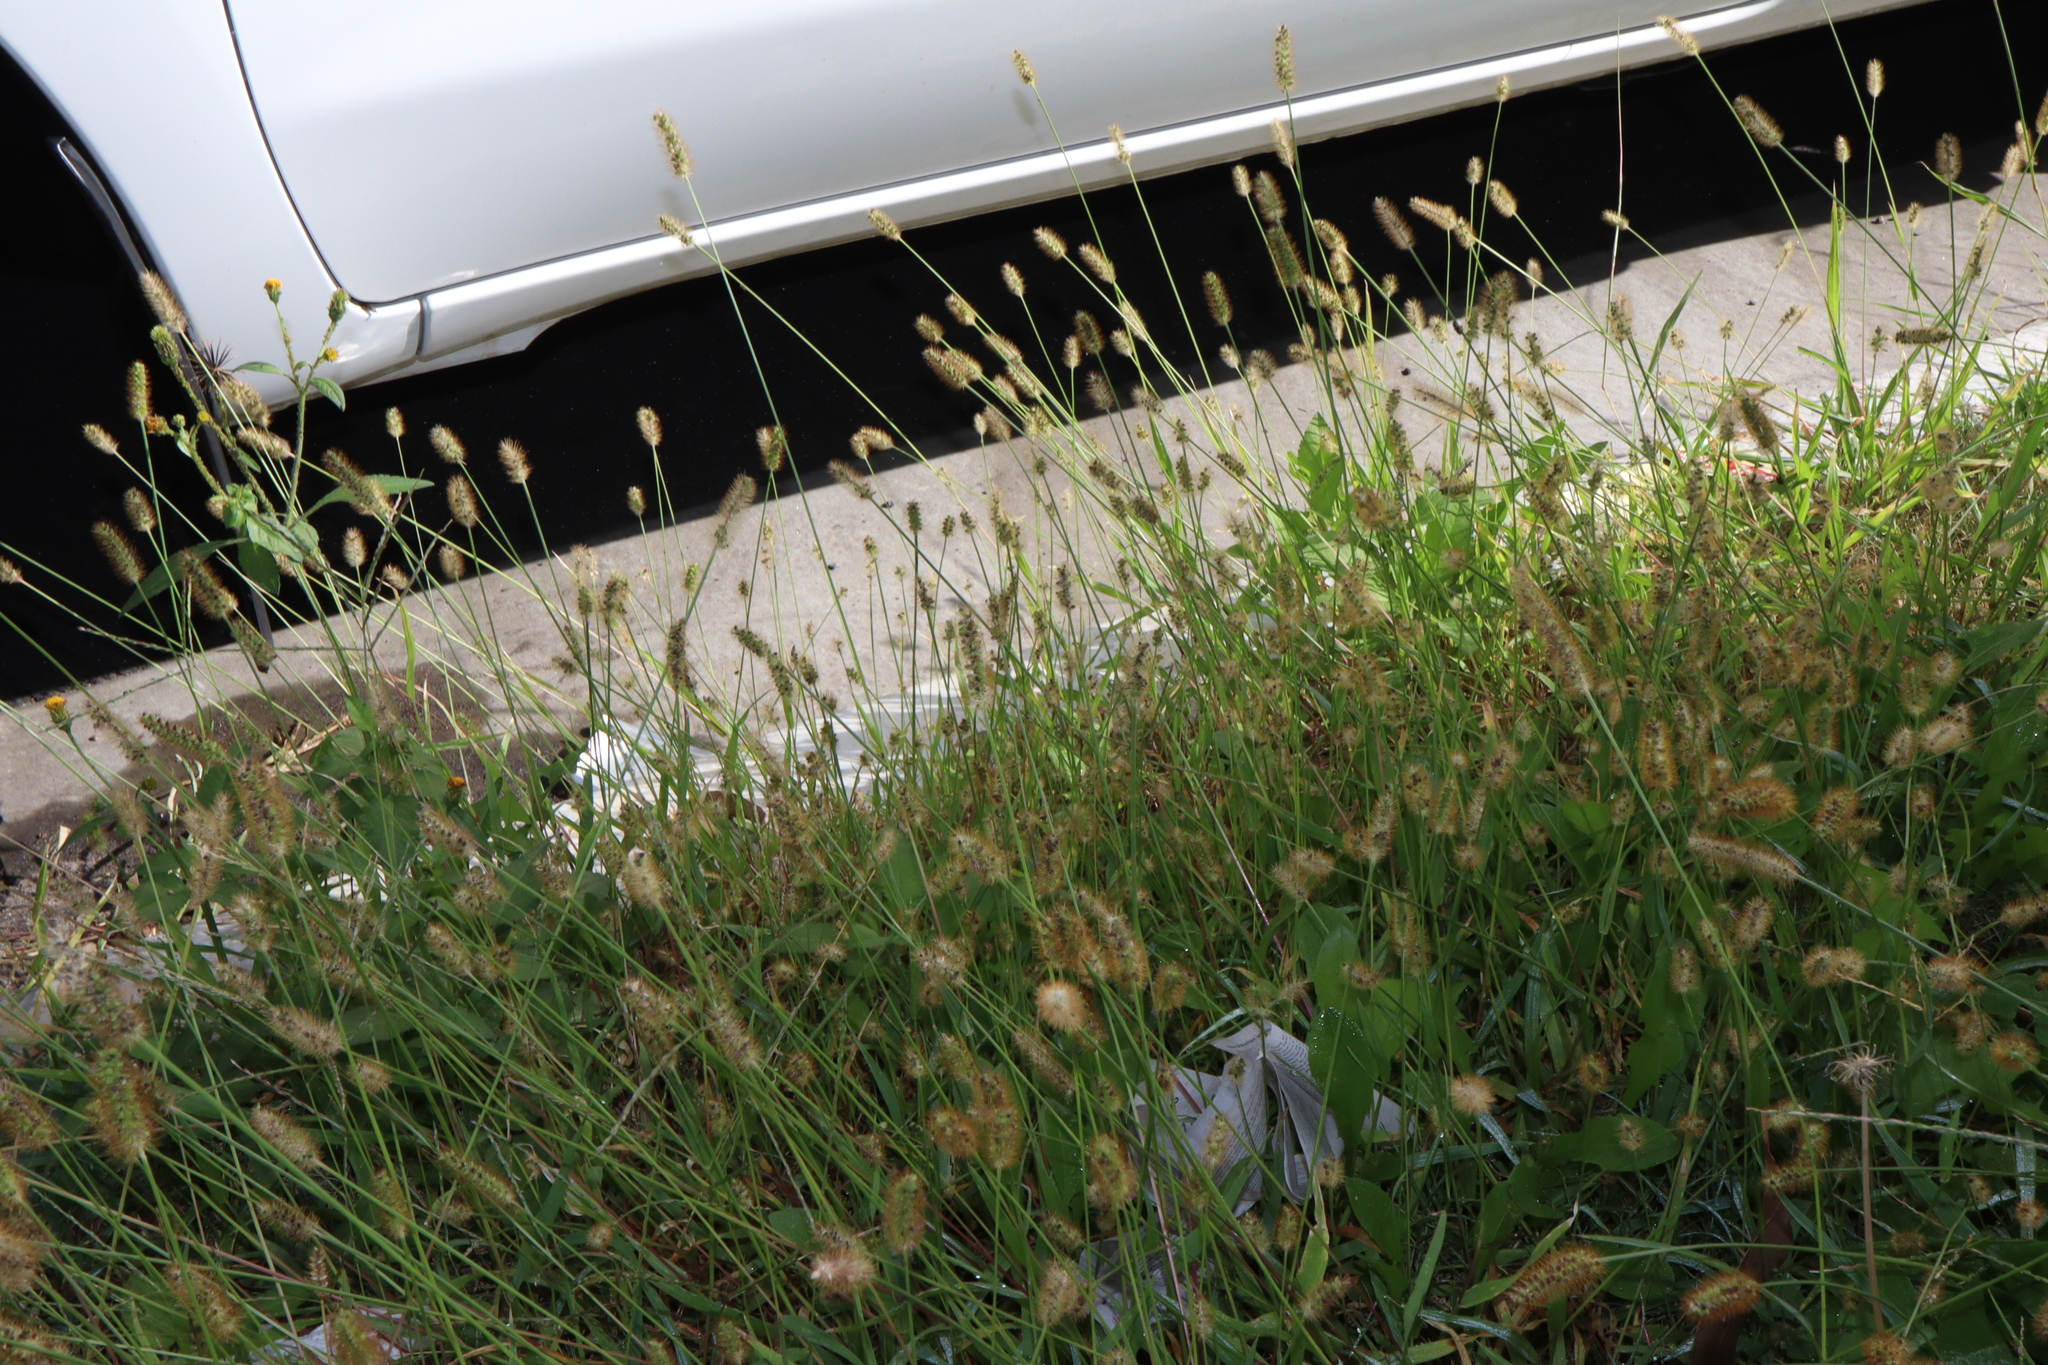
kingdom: Plantae
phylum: Tracheophyta
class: Liliopsida
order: Poales
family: Poaceae
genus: Setaria
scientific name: Setaria pumila
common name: Yellow bristle-grass
